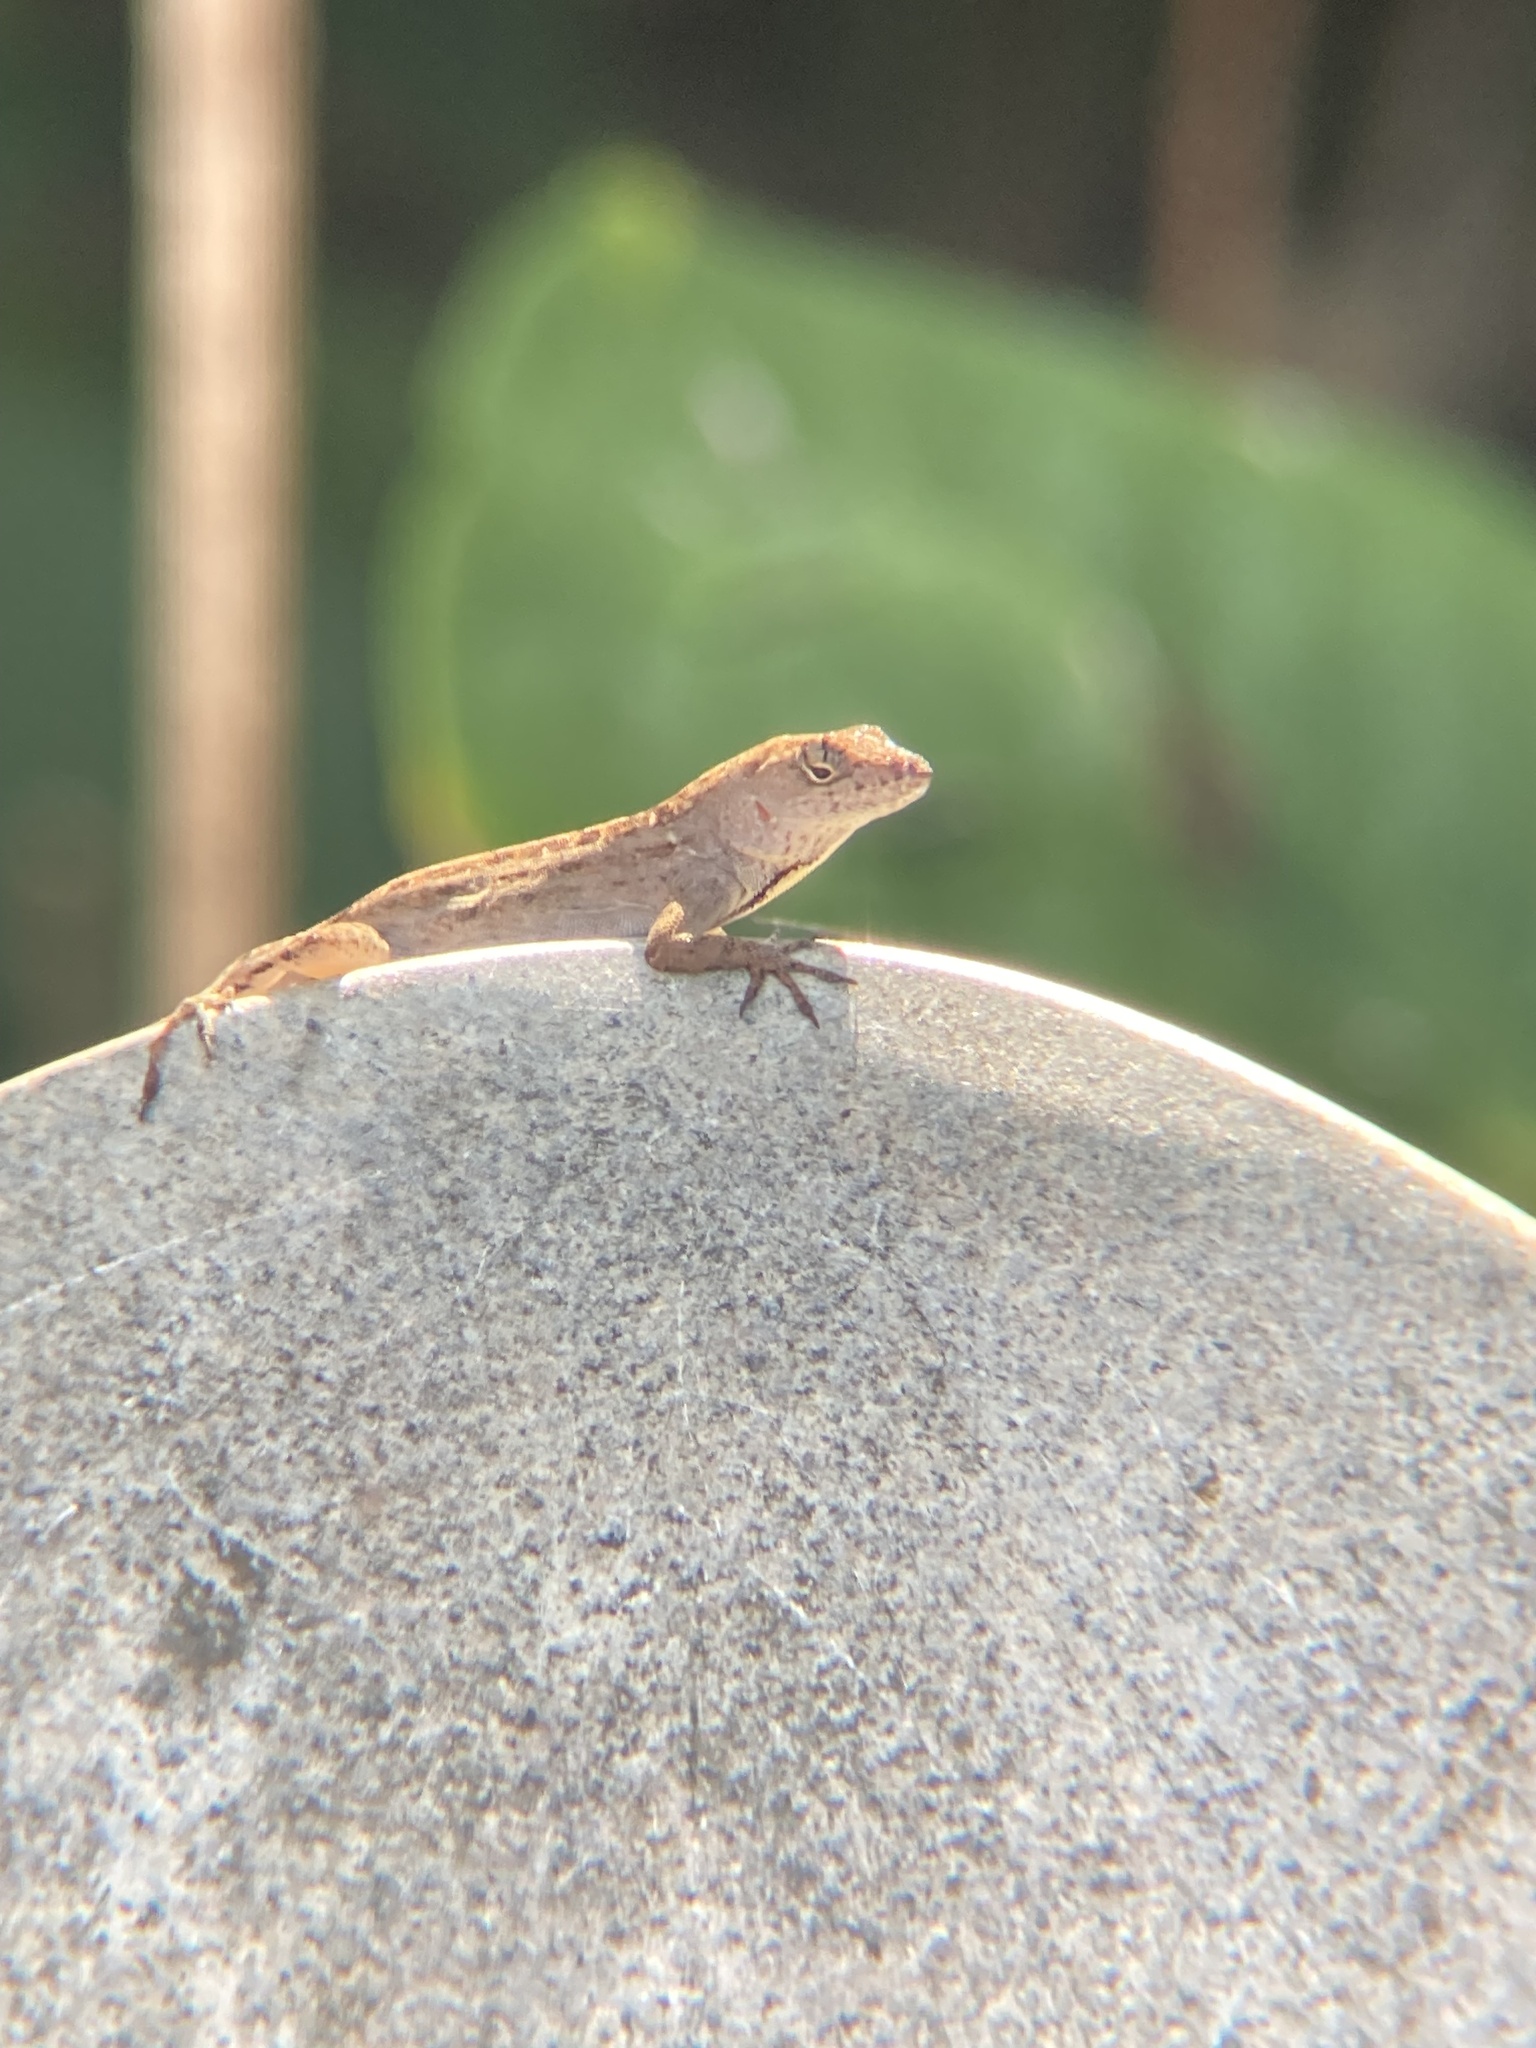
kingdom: Animalia
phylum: Chordata
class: Squamata
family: Dactyloidae
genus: Anolis
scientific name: Anolis sagrei
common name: Brown anole
